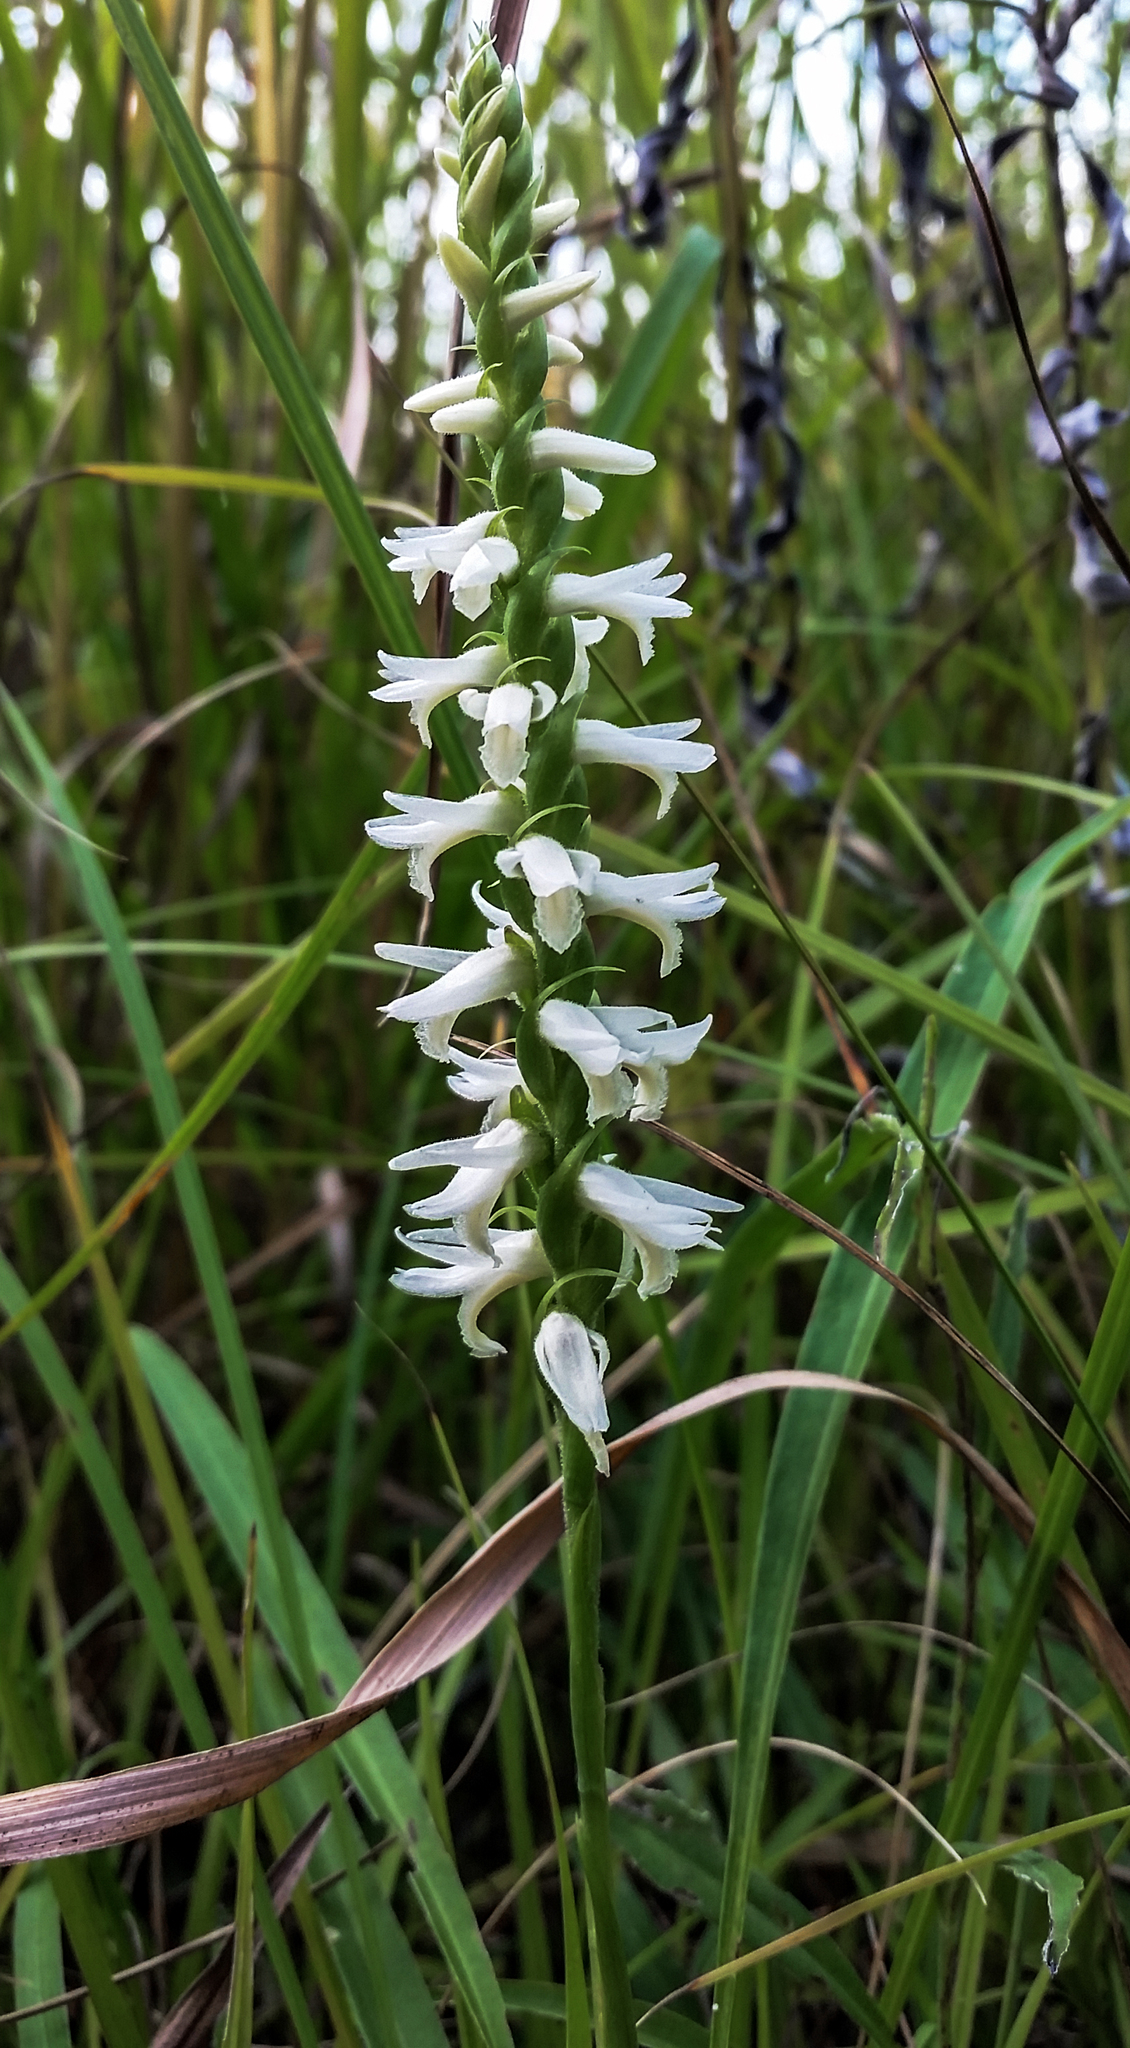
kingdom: Plantae
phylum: Tracheophyta
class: Liliopsida
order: Asparagales
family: Orchidaceae
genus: Spiranthes
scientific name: Spiranthes magnicamporum
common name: Great plains ladies'-tresses
